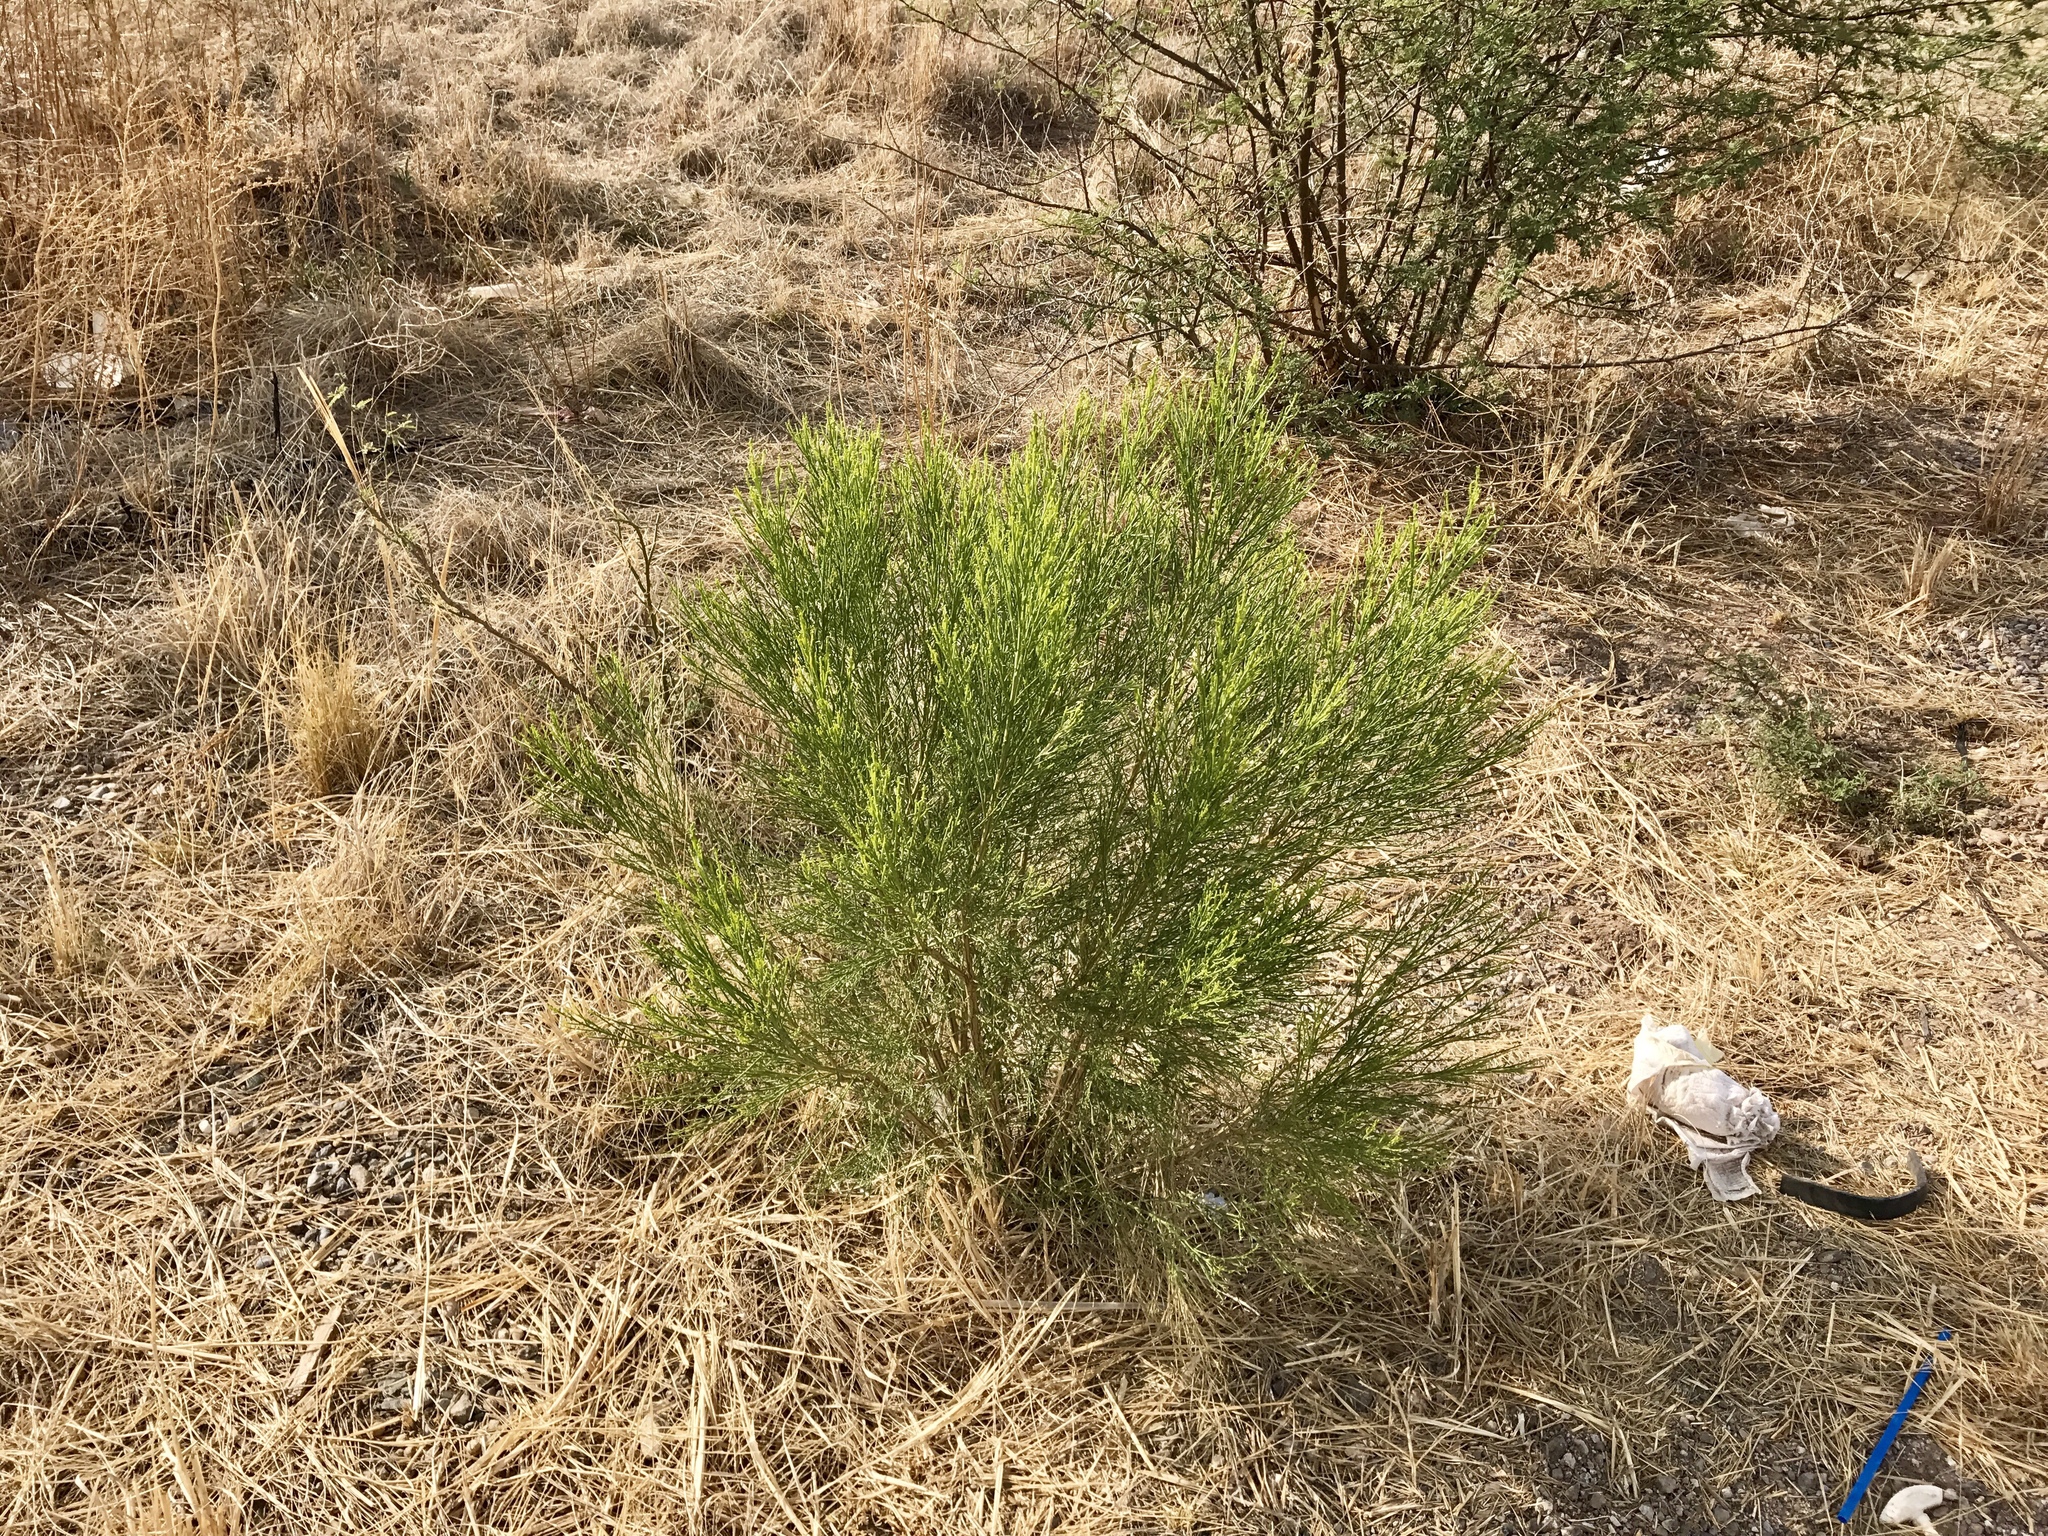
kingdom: Plantae
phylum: Tracheophyta
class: Magnoliopsida
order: Asterales
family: Asteraceae
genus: Baccharis
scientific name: Baccharis sarothroides
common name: Desert-broom
